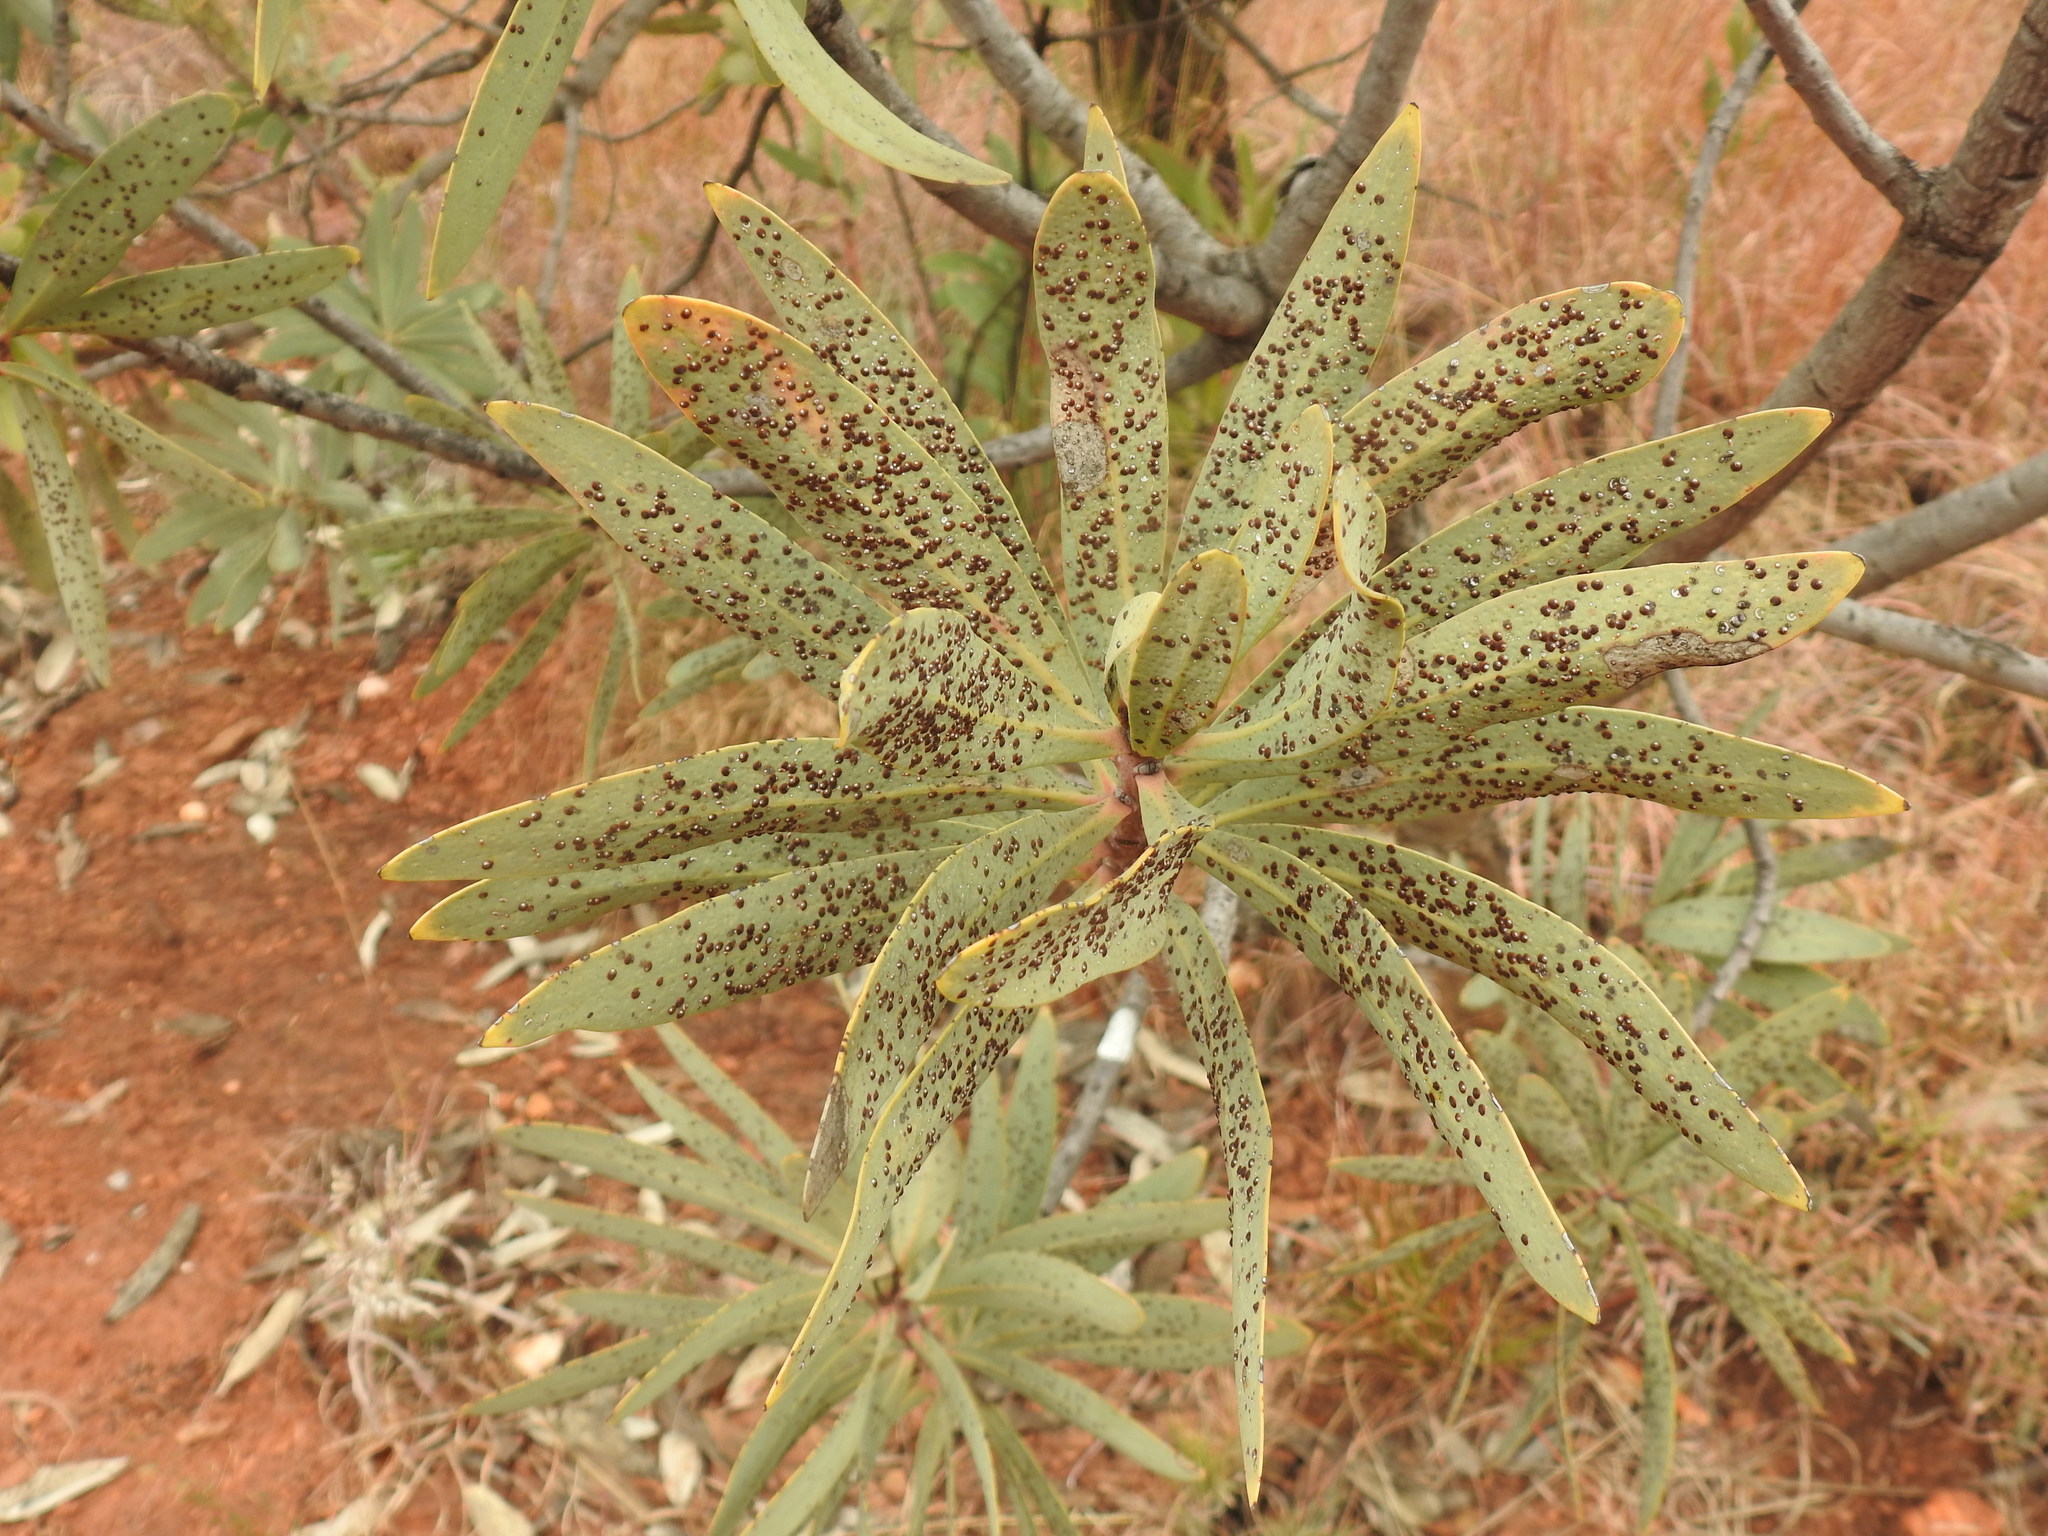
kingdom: Animalia
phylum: Arthropoda
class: Insecta
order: Hemiptera
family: Diaspididae
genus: Separaspis
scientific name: Separaspis proteae
